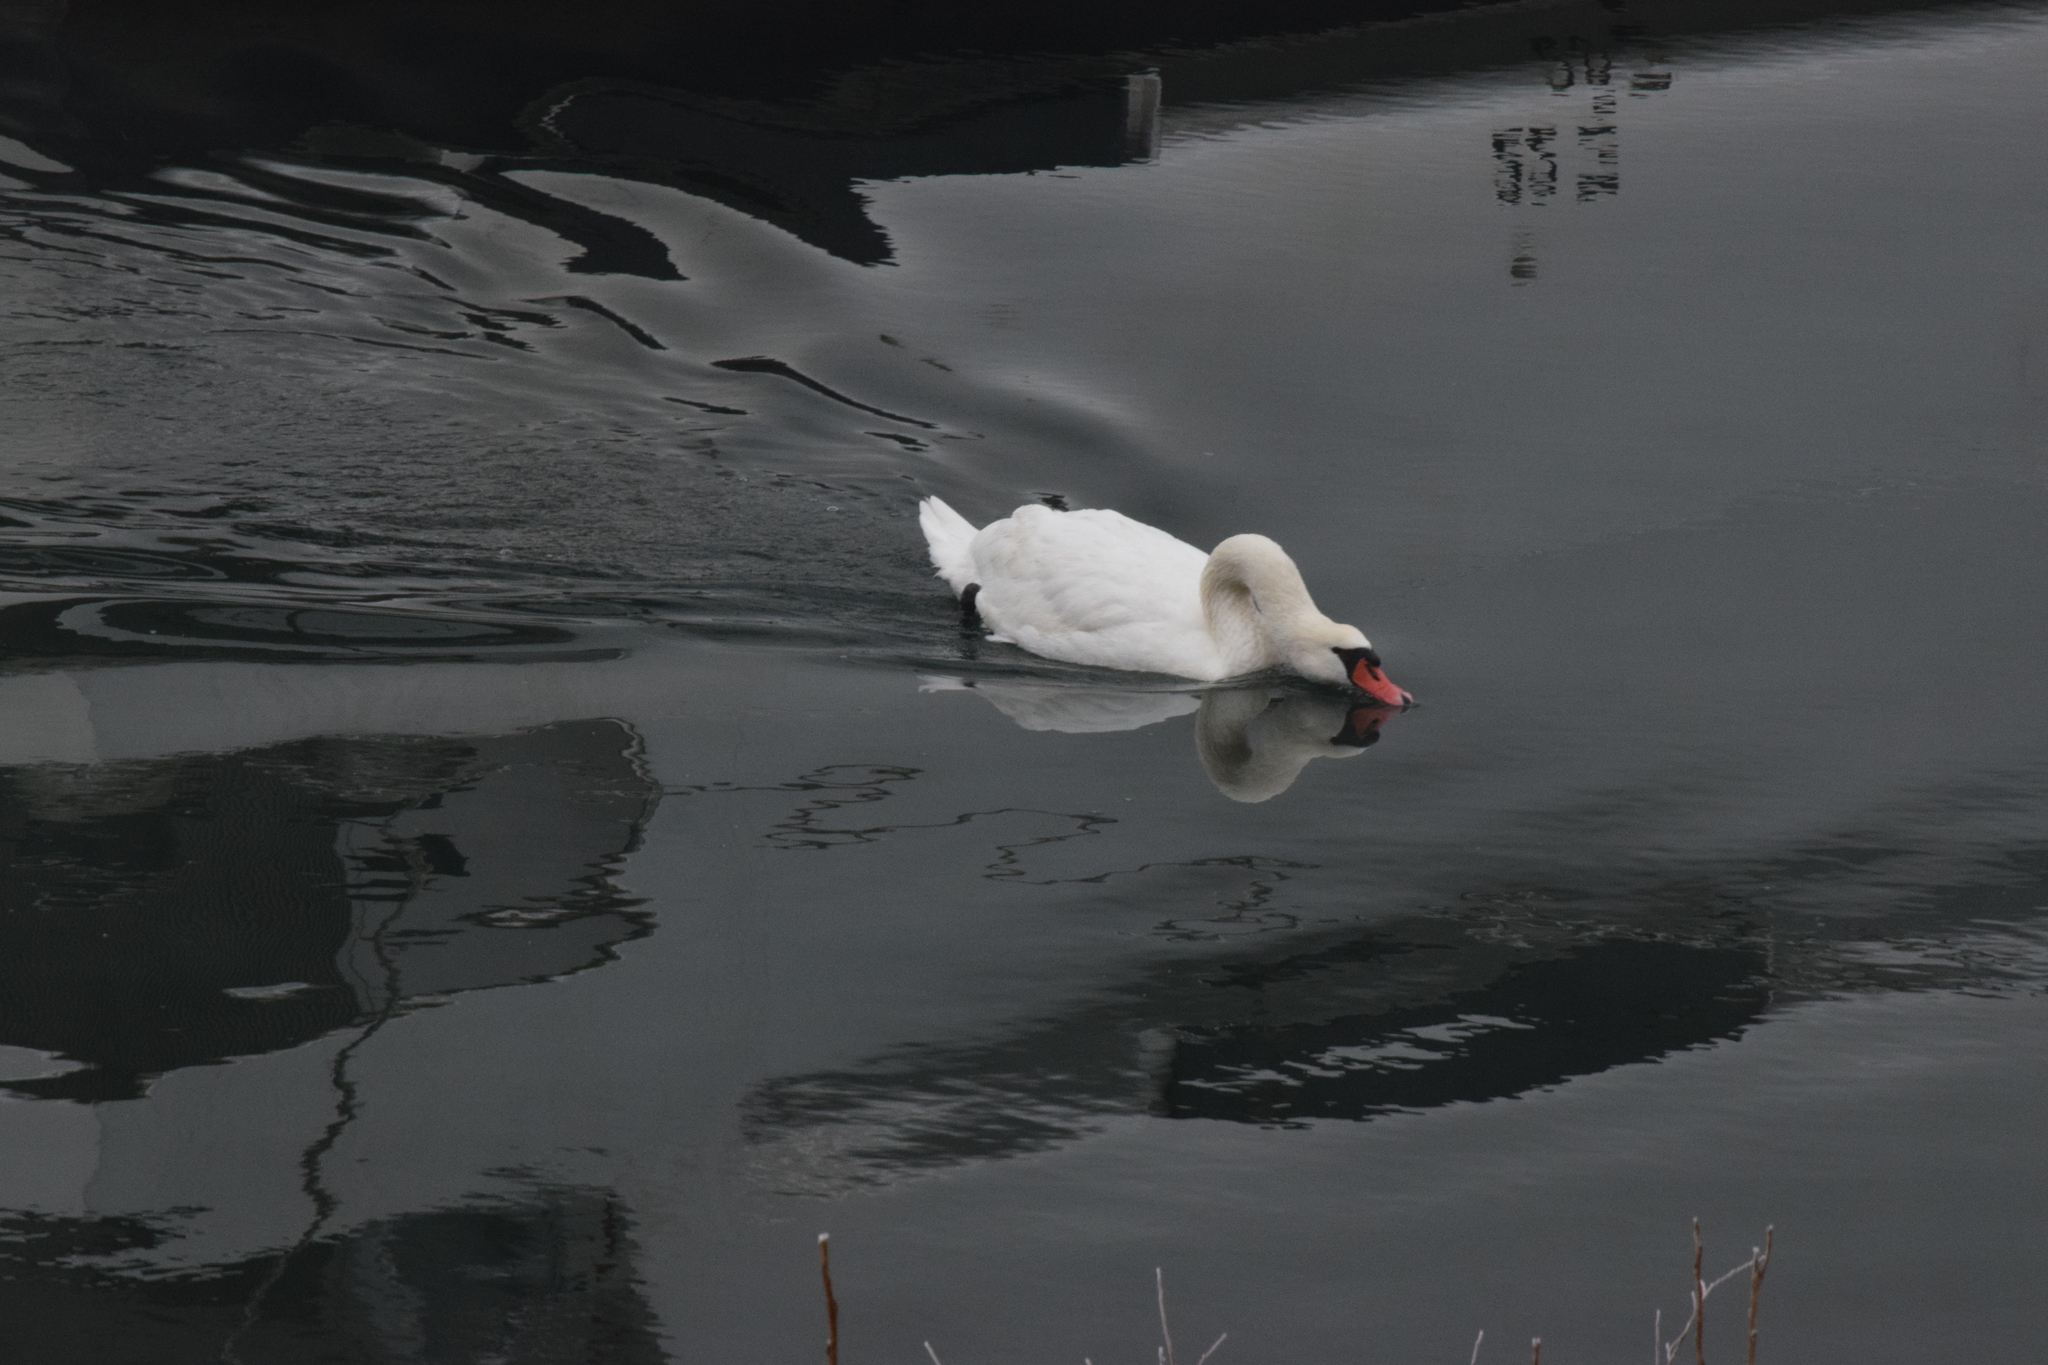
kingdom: Animalia
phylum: Chordata
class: Aves
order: Anseriformes
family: Anatidae
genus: Cygnus
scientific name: Cygnus olor
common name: Mute swan
